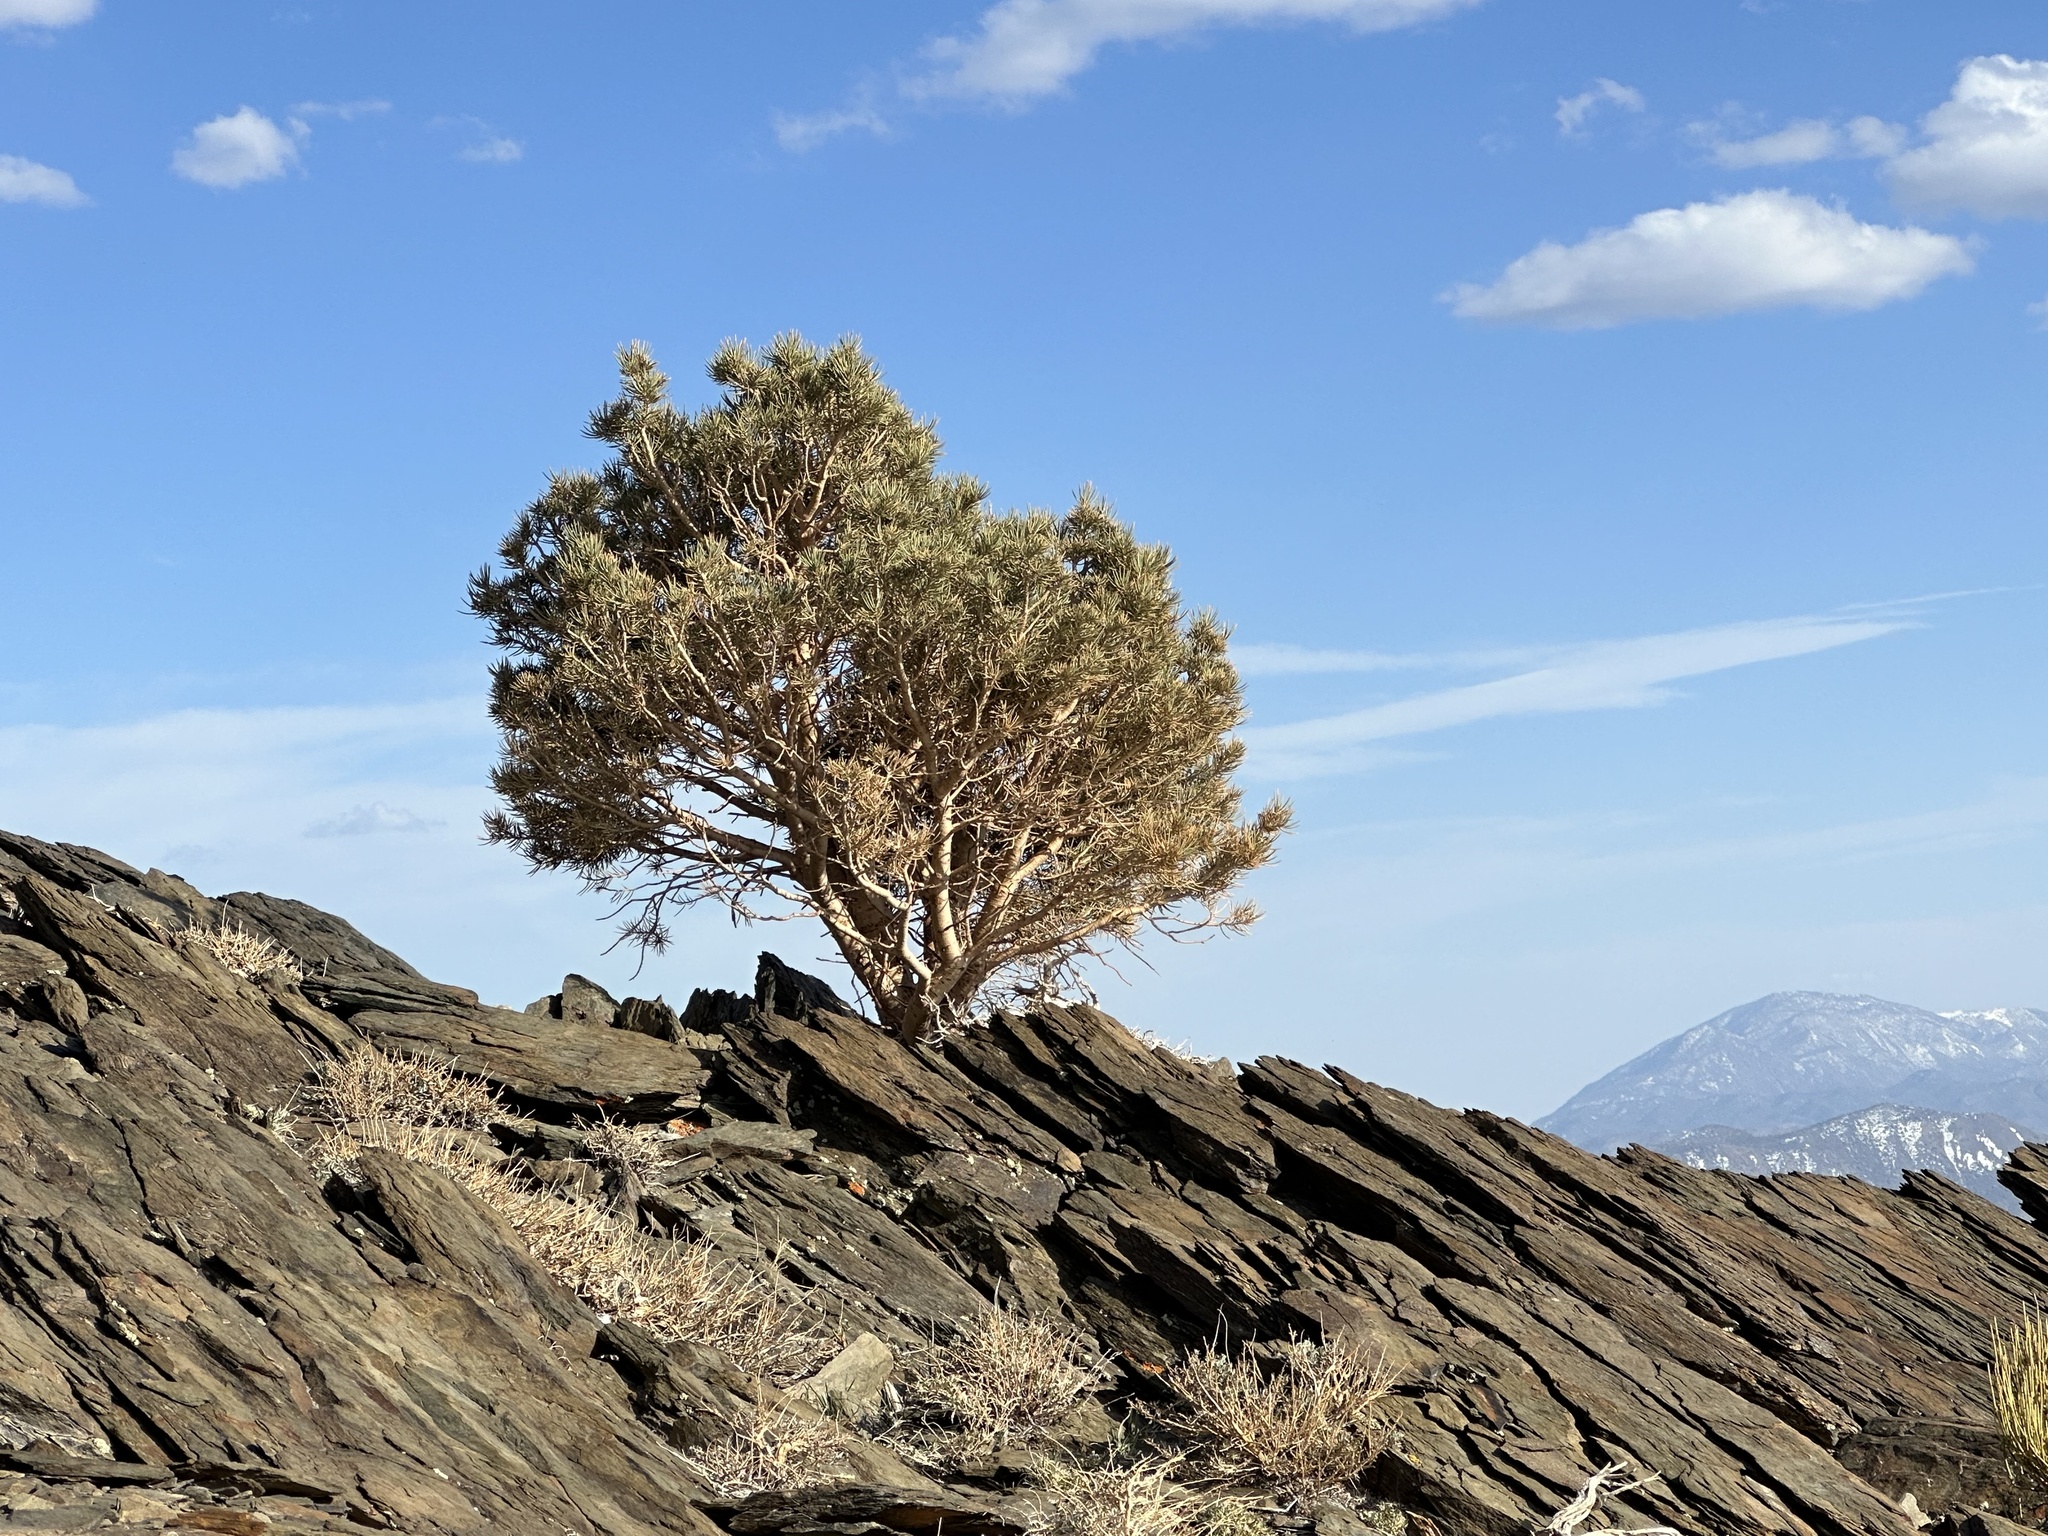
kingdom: Plantae
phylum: Tracheophyta
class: Pinopsida
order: Pinales
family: Pinaceae
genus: Pinus
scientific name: Pinus monophylla
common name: One-leaved nut pine
